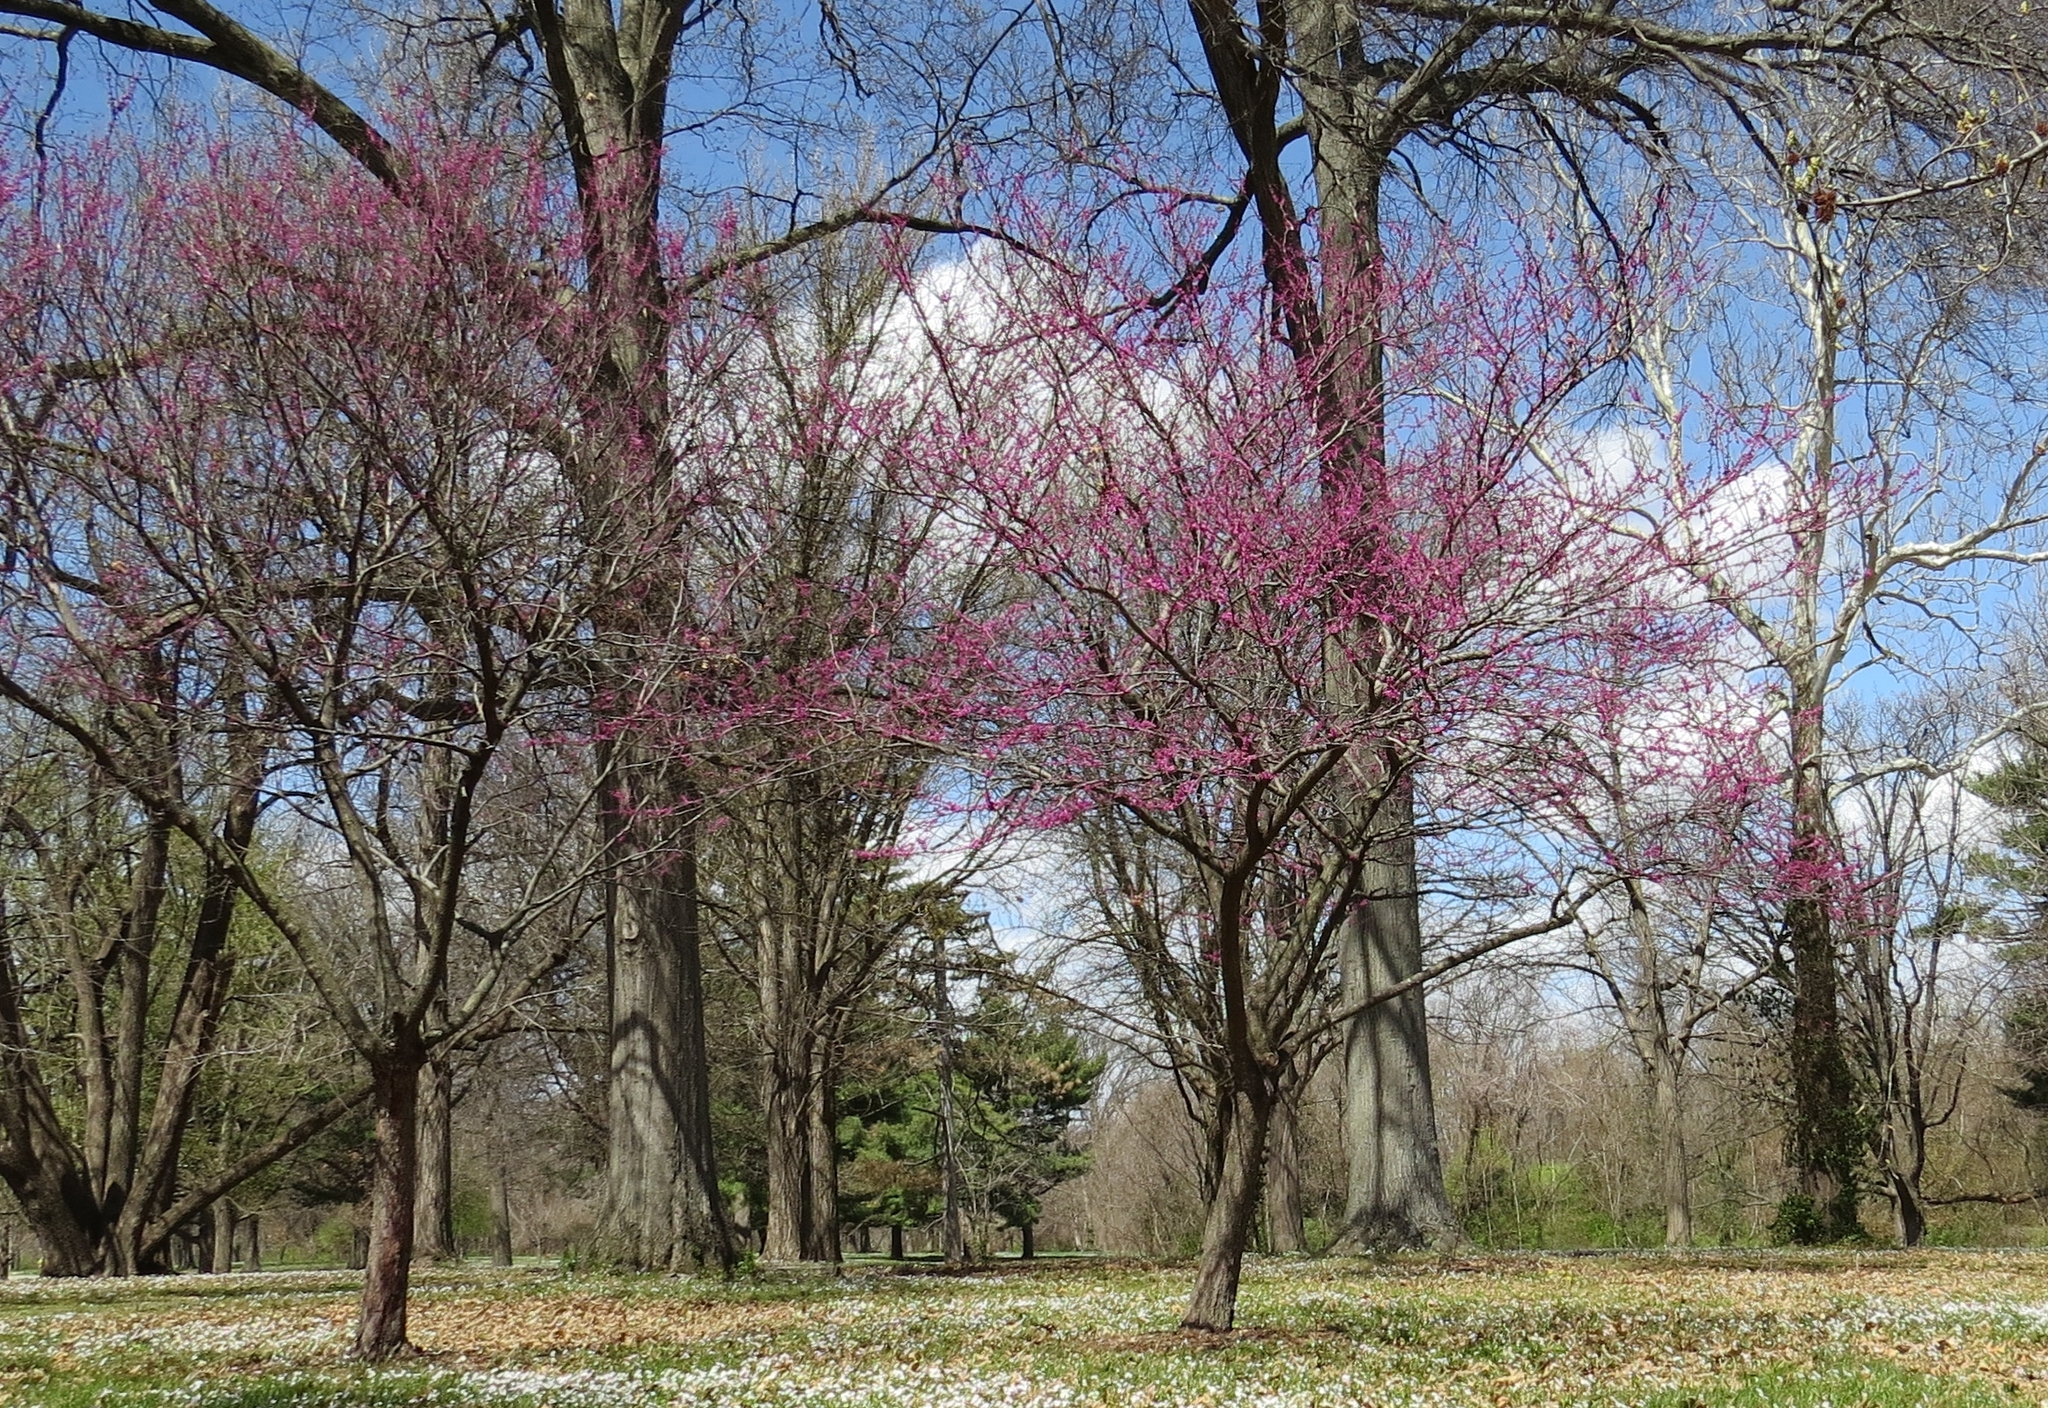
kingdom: Plantae
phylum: Tracheophyta
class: Magnoliopsida
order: Fabales
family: Fabaceae
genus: Cercis
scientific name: Cercis canadensis
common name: Eastern redbud
